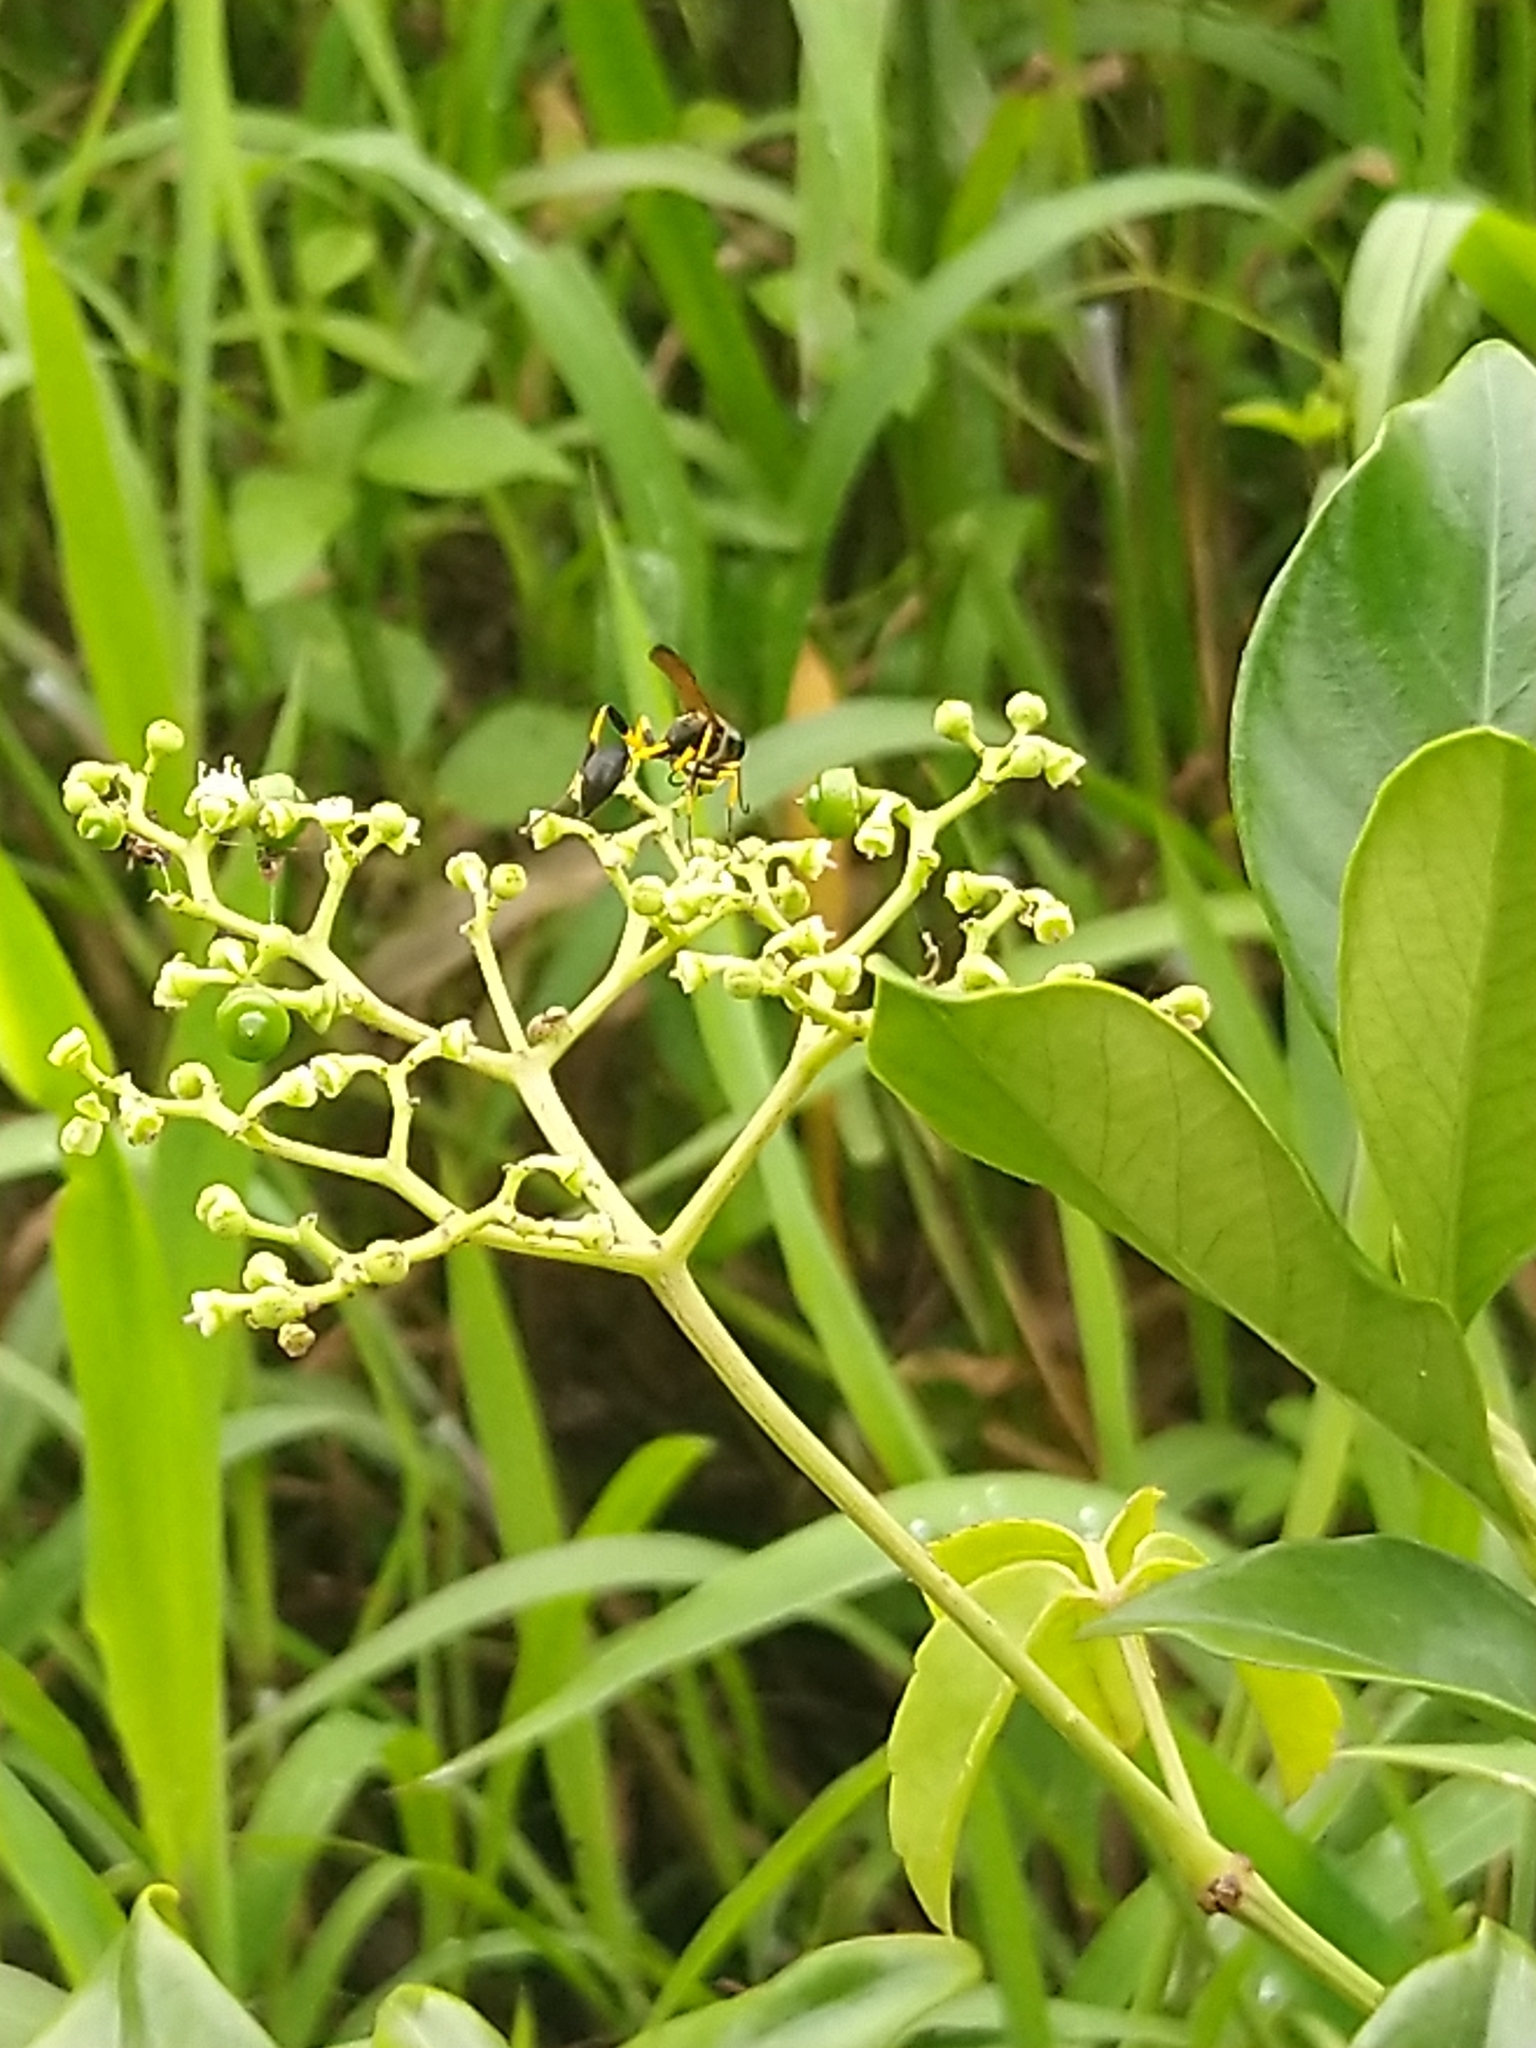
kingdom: Animalia
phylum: Arthropoda
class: Insecta
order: Hymenoptera
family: Sphecidae
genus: Sceliphron
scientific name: Sceliphron madraspatanum
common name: Mud dauber
